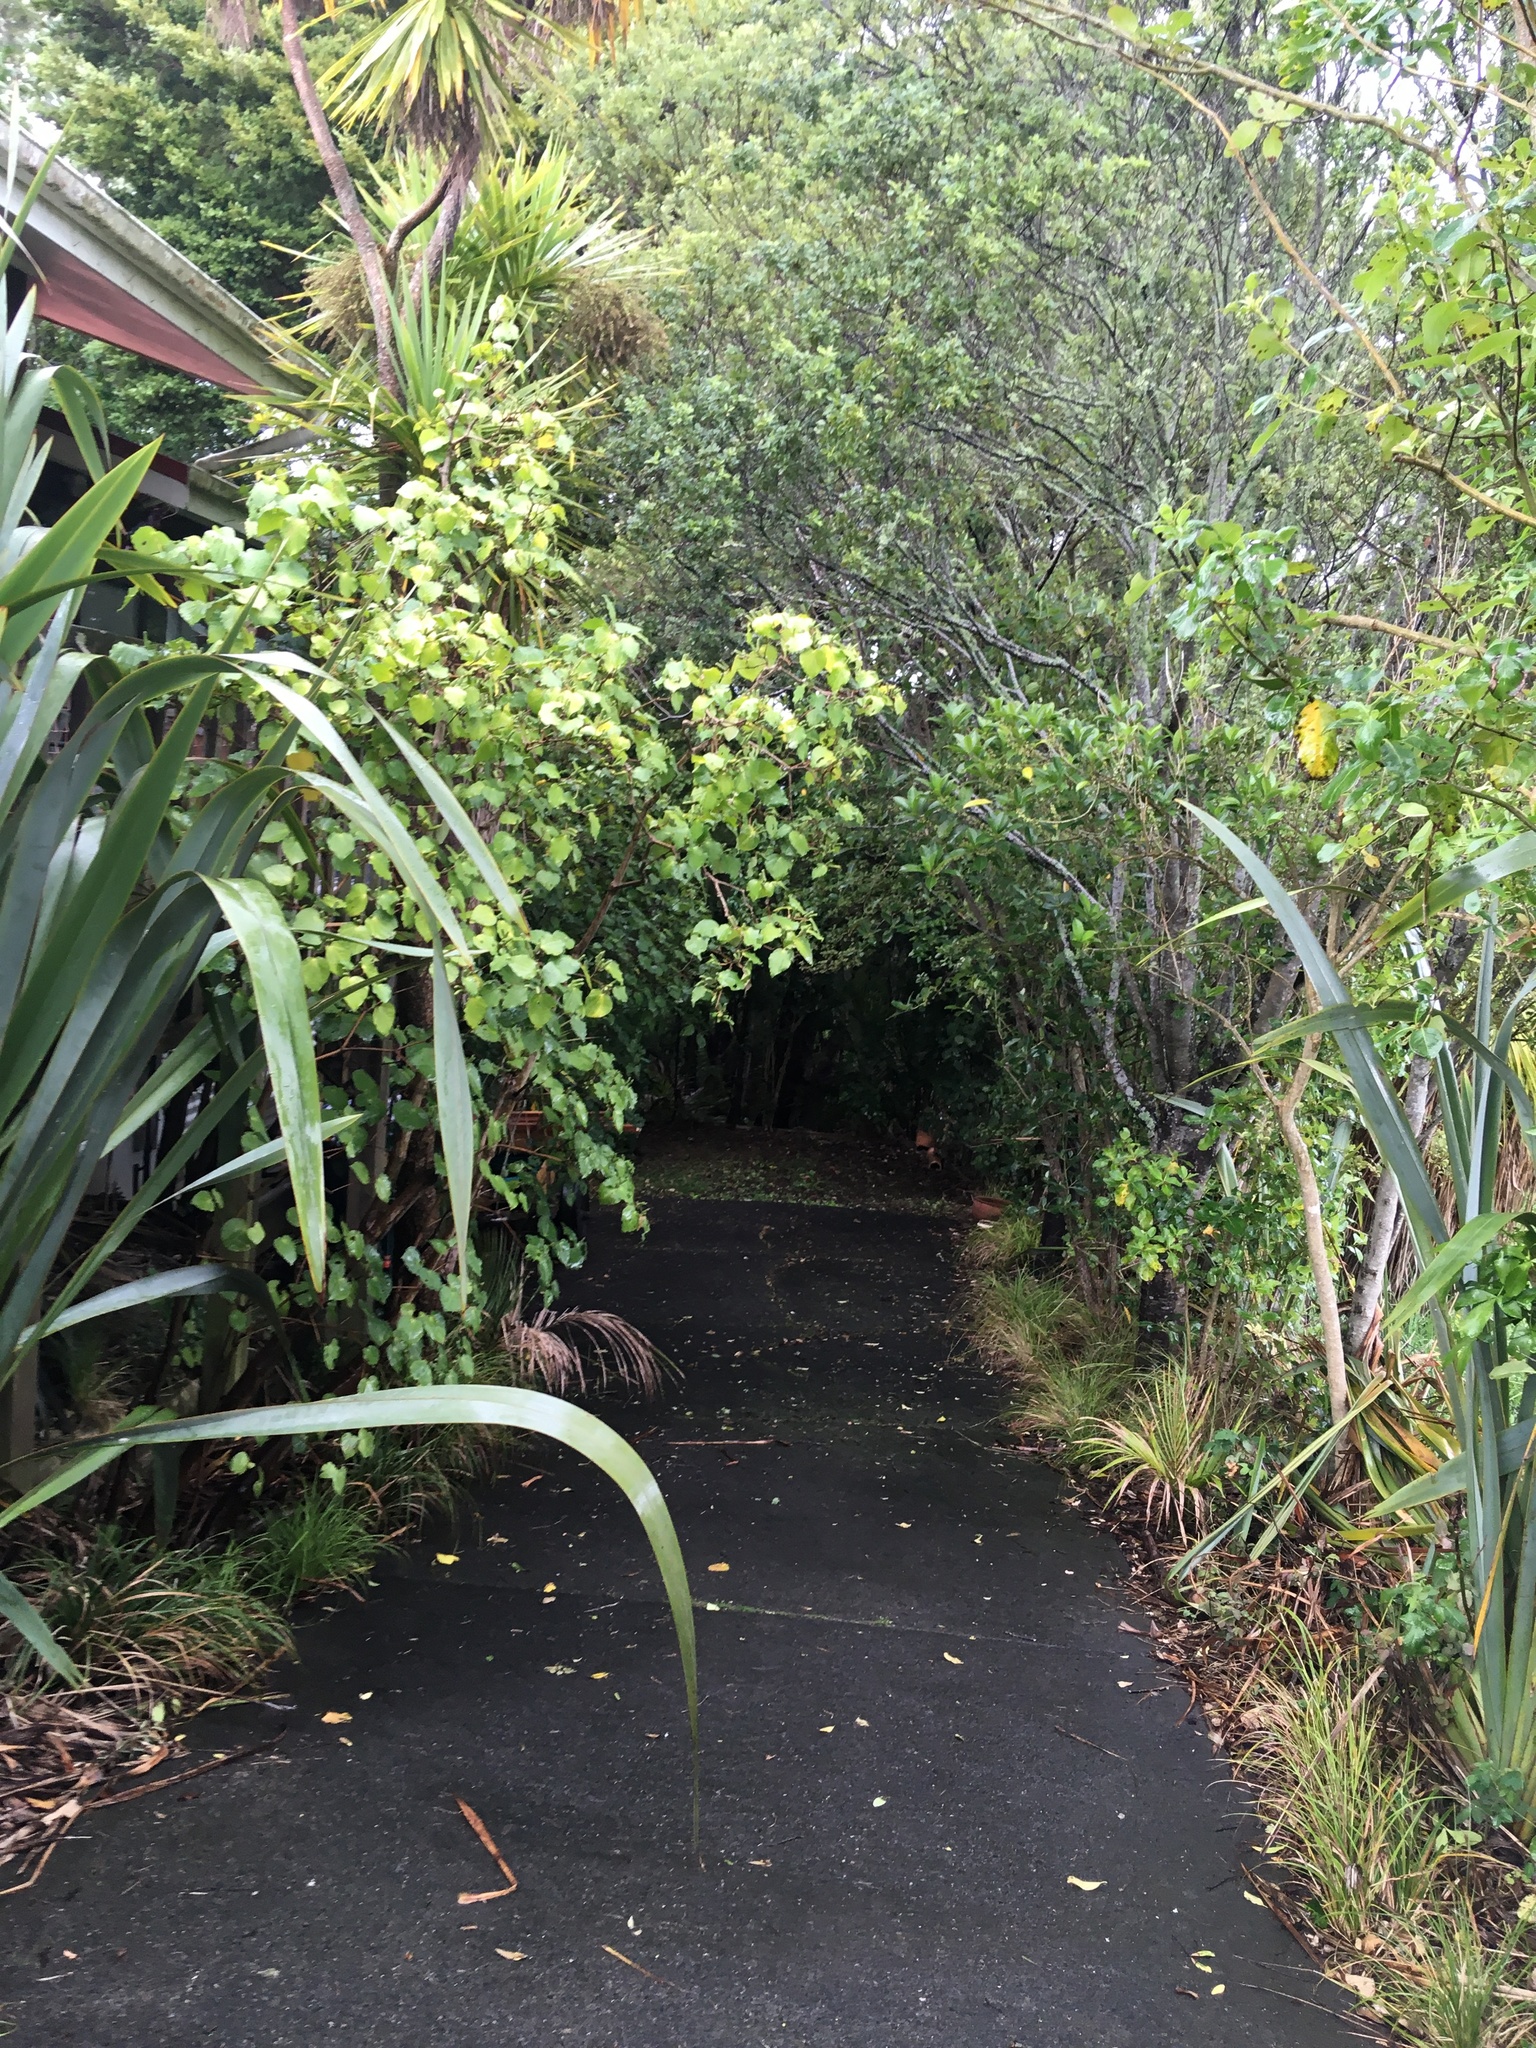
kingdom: Plantae
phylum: Tracheophyta
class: Liliopsida
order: Arecales
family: Arecaceae
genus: Rhopalostylis
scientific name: Rhopalostylis sapida
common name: Feather-duster palm
